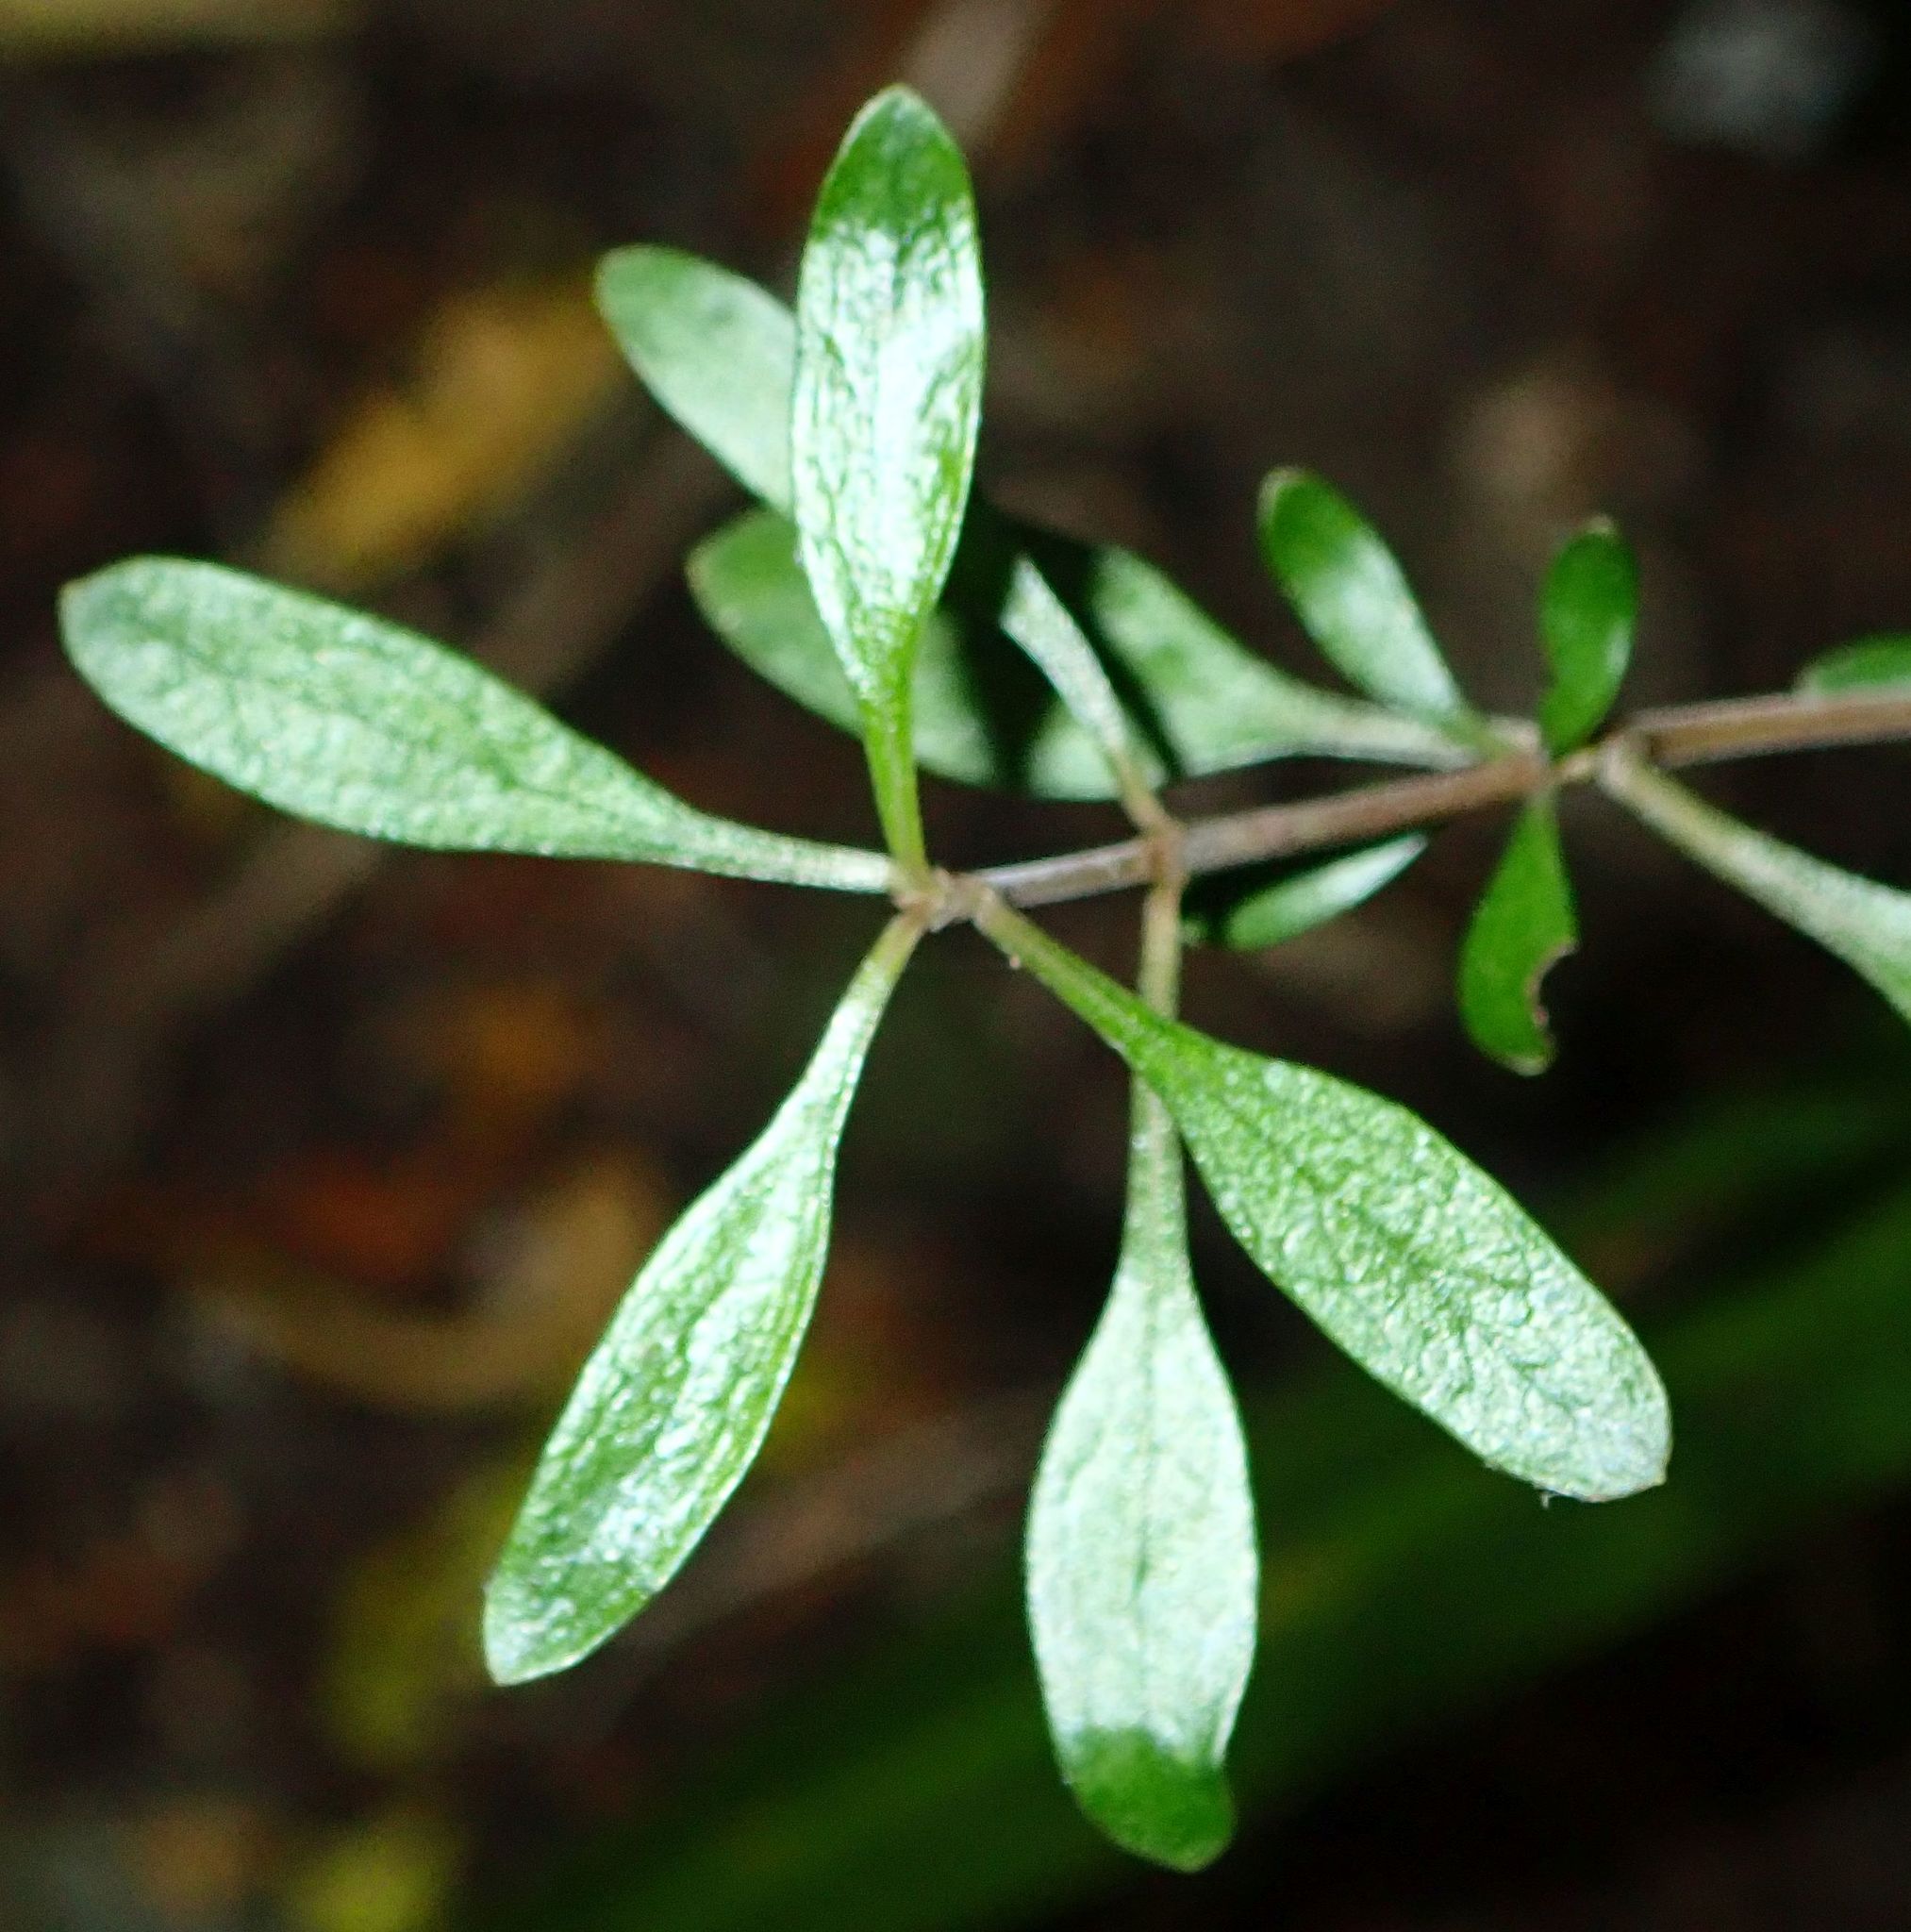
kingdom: Plantae
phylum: Tracheophyta
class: Magnoliopsida
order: Gentianales
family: Rubiaceae
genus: Coprosma
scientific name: Coprosma cunninghamii
